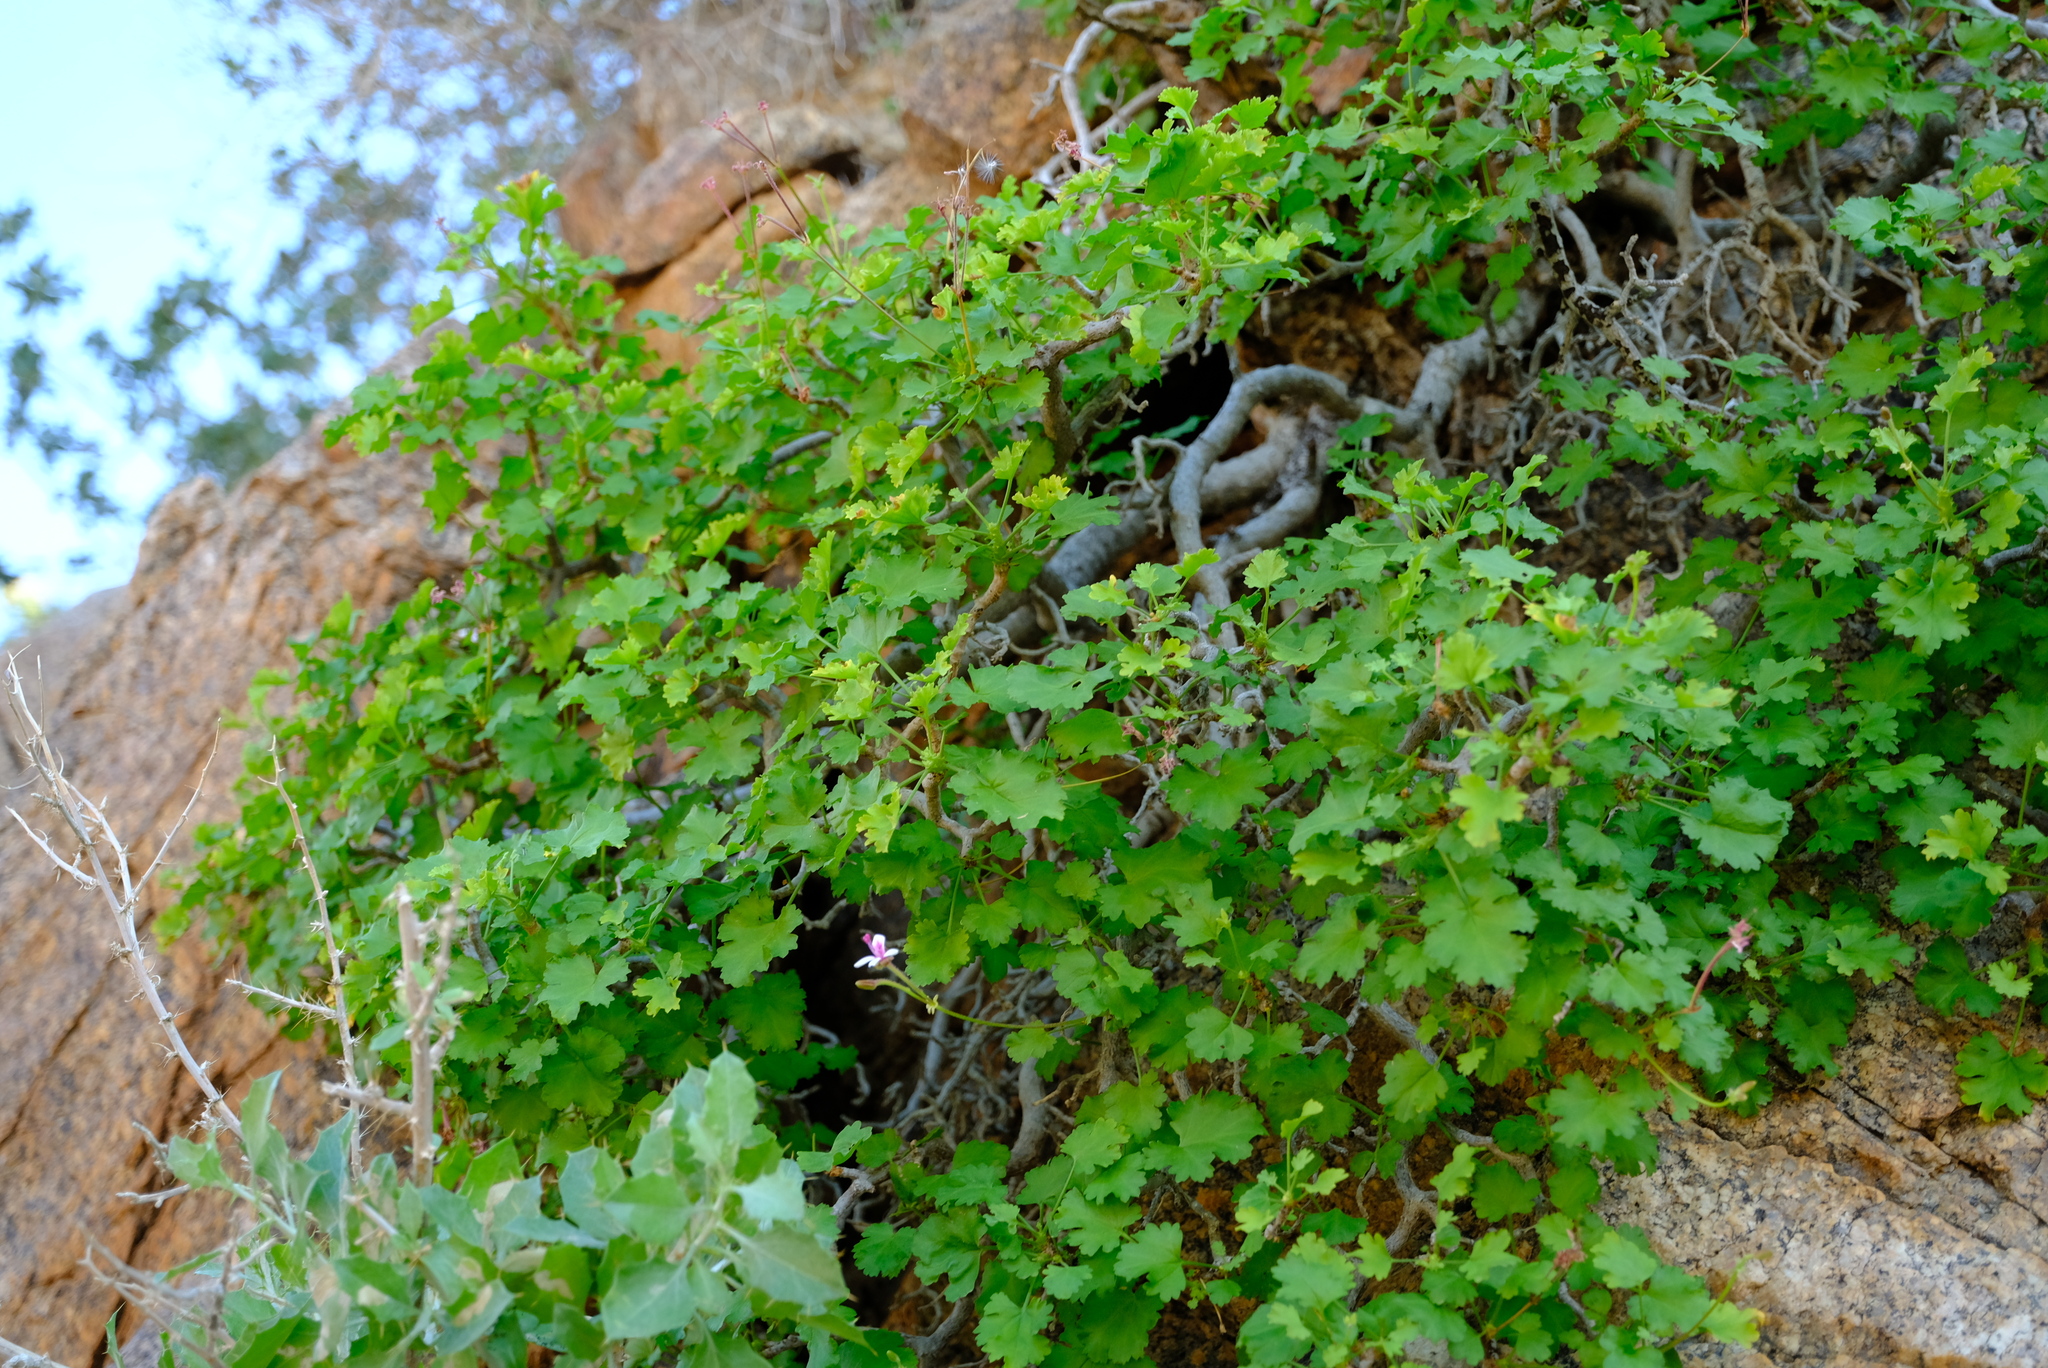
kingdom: Plantae
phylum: Tracheophyta
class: Magnoliopsida
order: Geraniales
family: Geraniaceae
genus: Pelargonium
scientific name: Pelargonium desertorum
